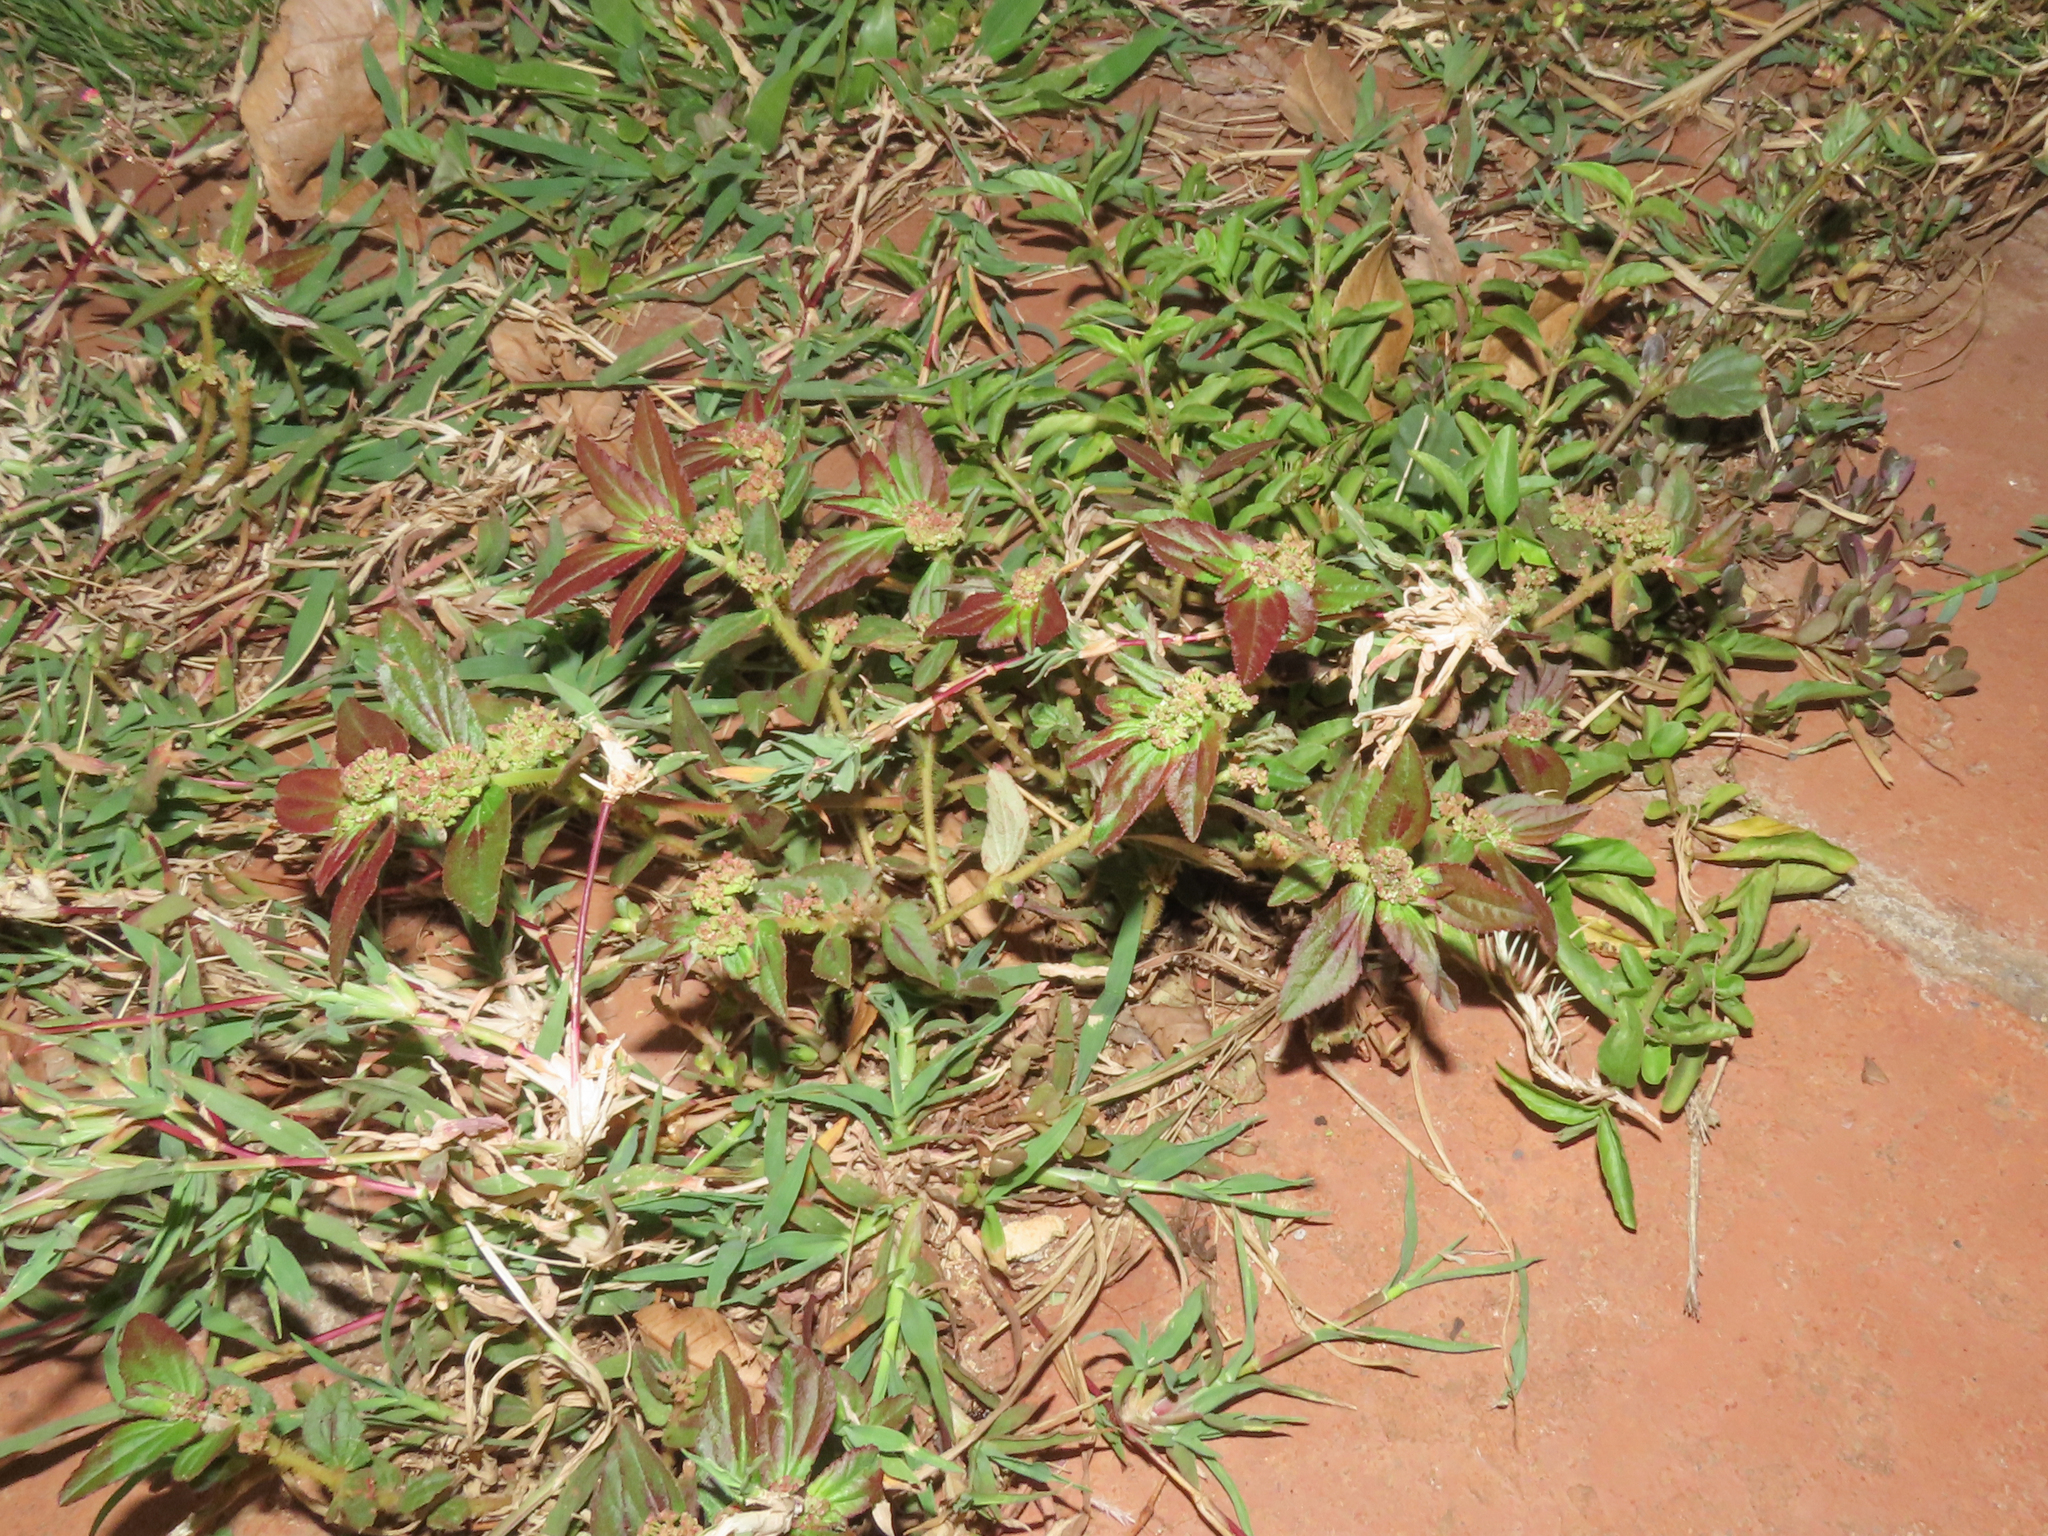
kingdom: Plantae
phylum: Tracheophyta
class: Magnoliopsida
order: Malpighiales
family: Euphorbiaceae
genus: Euphorbia
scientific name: Euphorbia hirta
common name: Pillpod sandmat
